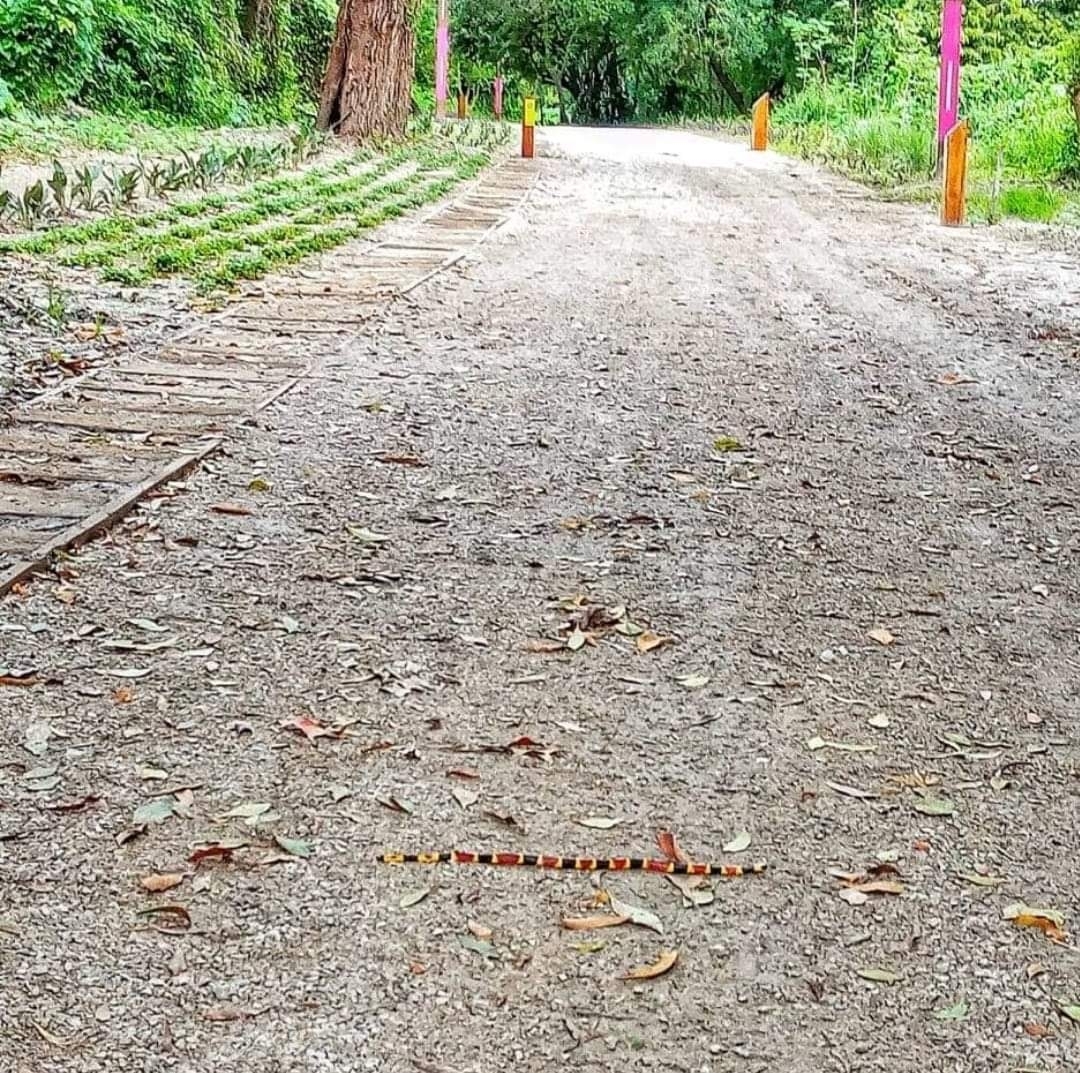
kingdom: Animalia
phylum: Chordata
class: Squamata
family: Elapidae
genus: Micrurus
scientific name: Micrurus tener
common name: Texas coral snake
